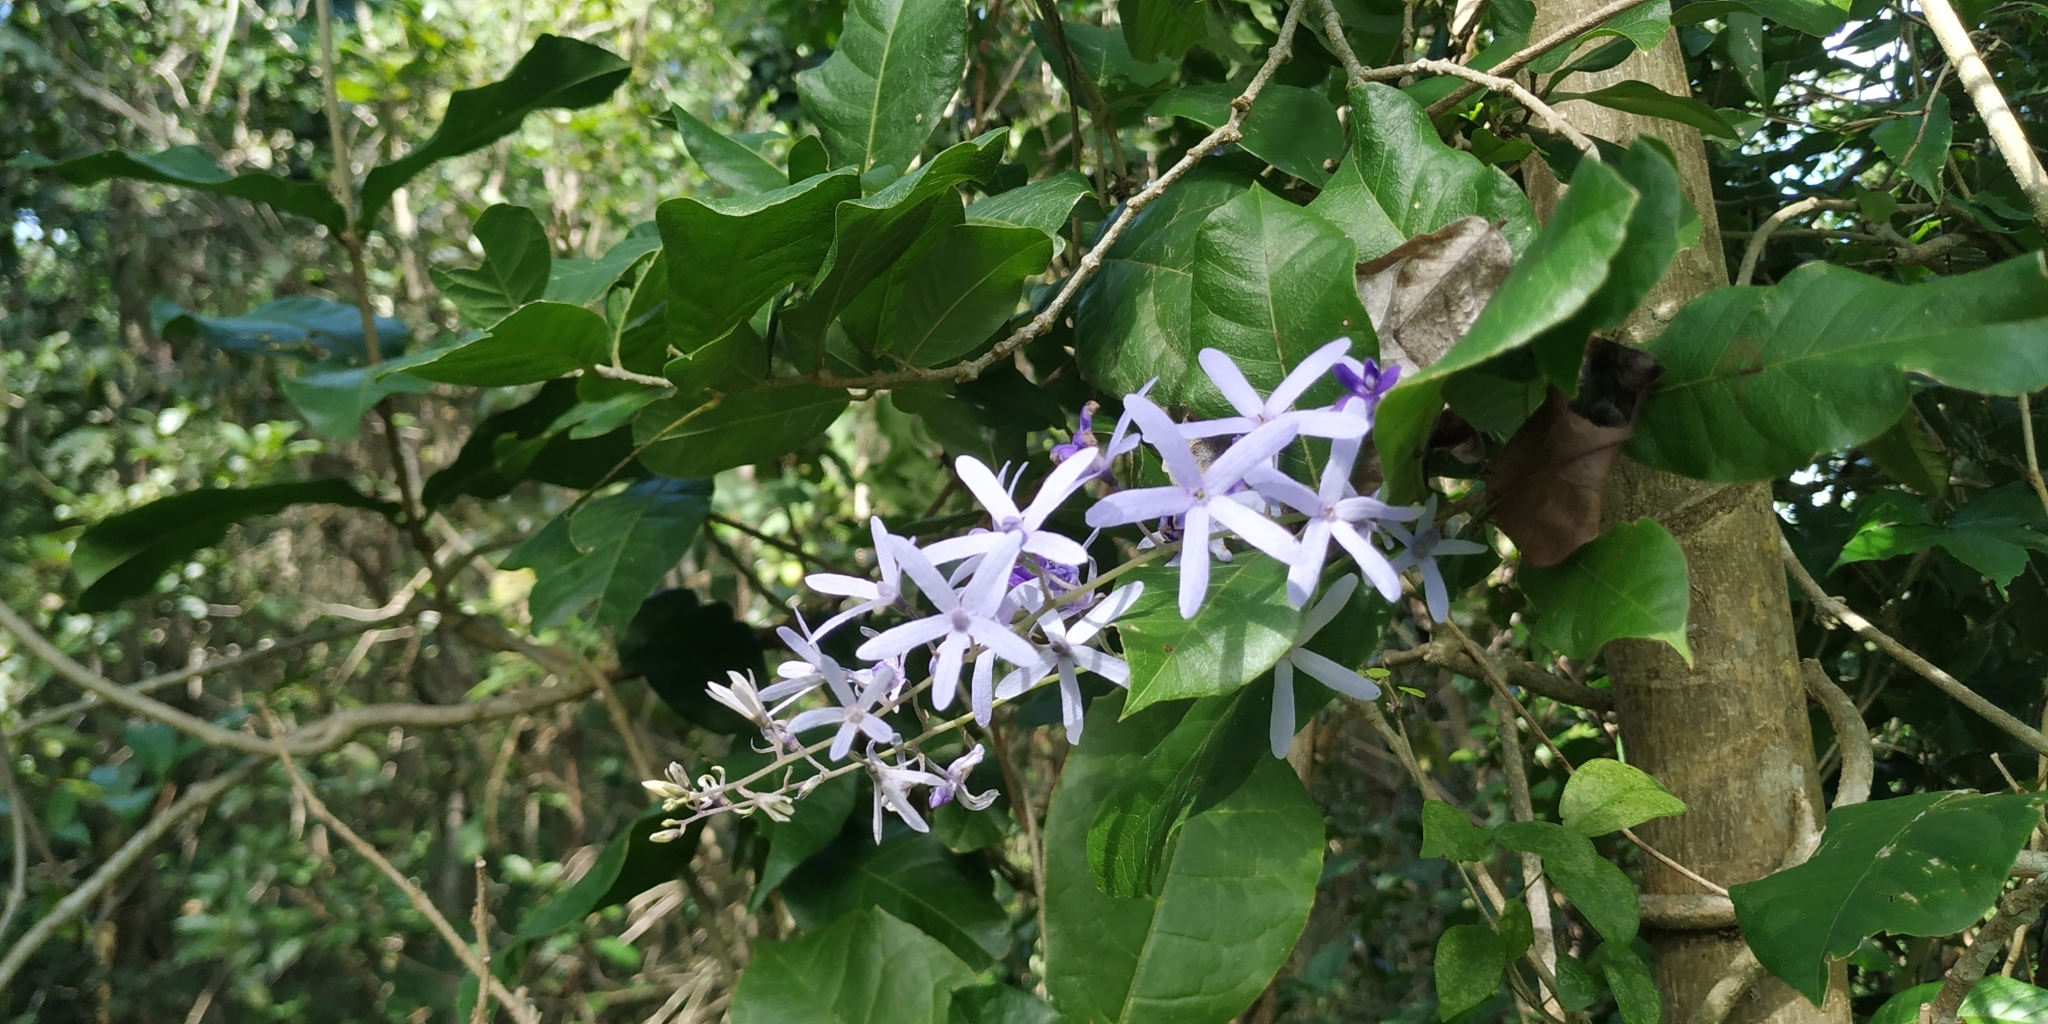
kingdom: Plantae
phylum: Tracheophyta
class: Magnoliopsida
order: Lamiales
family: Verbenaceae
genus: Petrea
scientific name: Petrea volubilis
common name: Queen's-wreath
